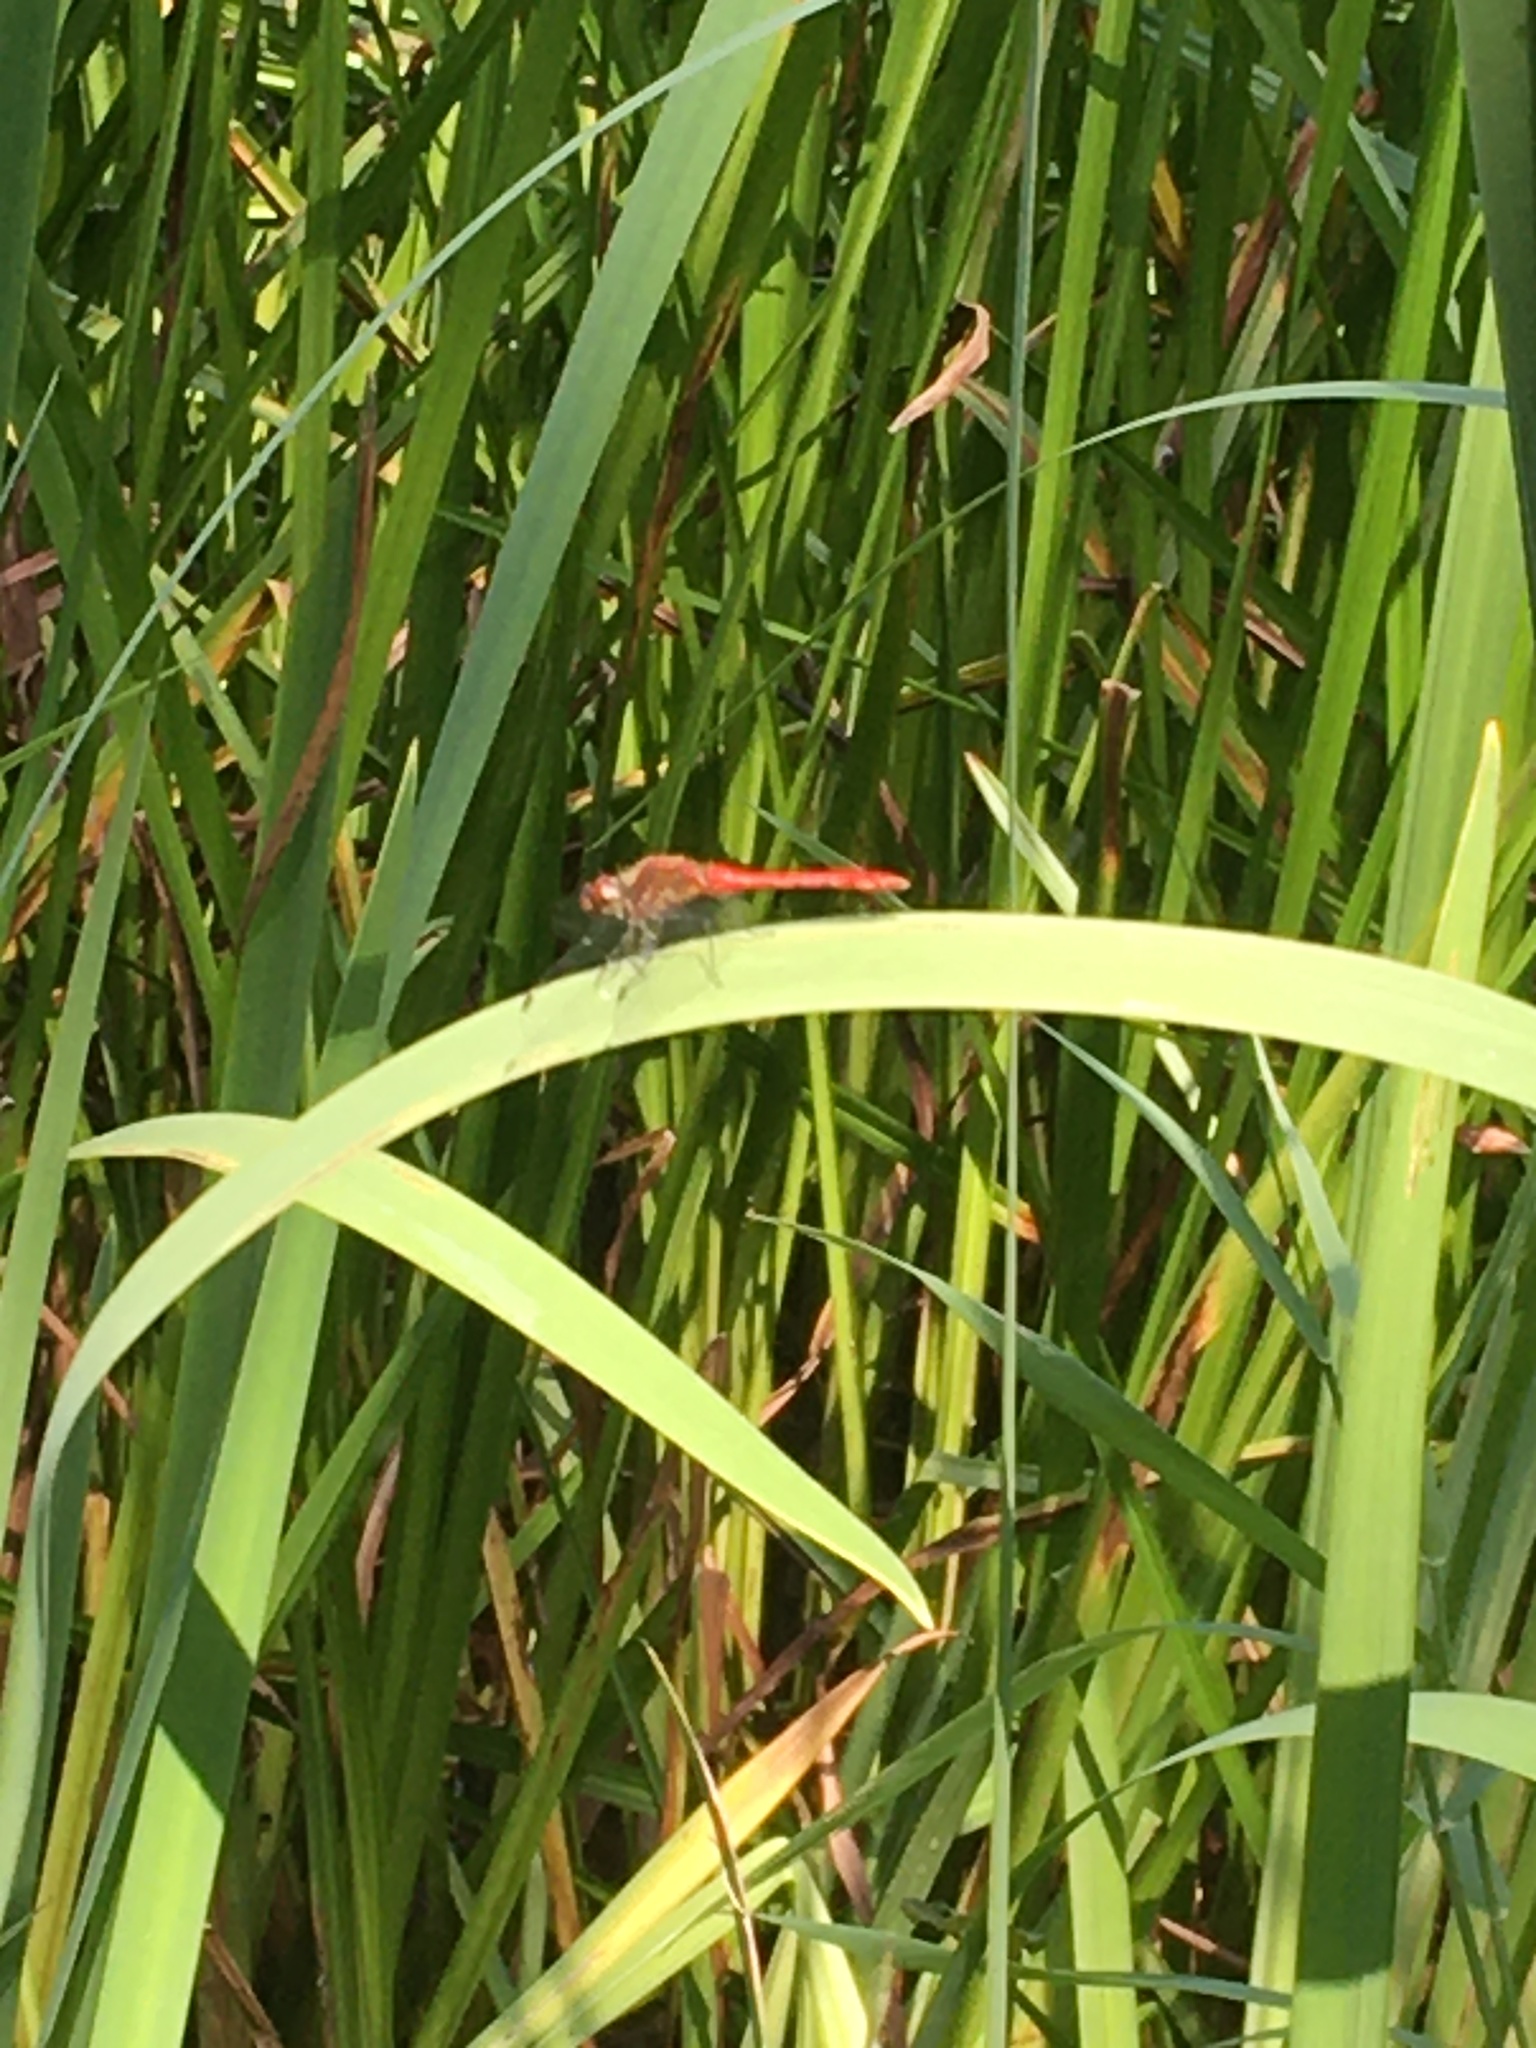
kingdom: Animalia
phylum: Arthropoda
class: Insecta
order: Odonata
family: Libellulidae
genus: Sympetrum
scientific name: Sympetrum sanguineum
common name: Ruddy darter
